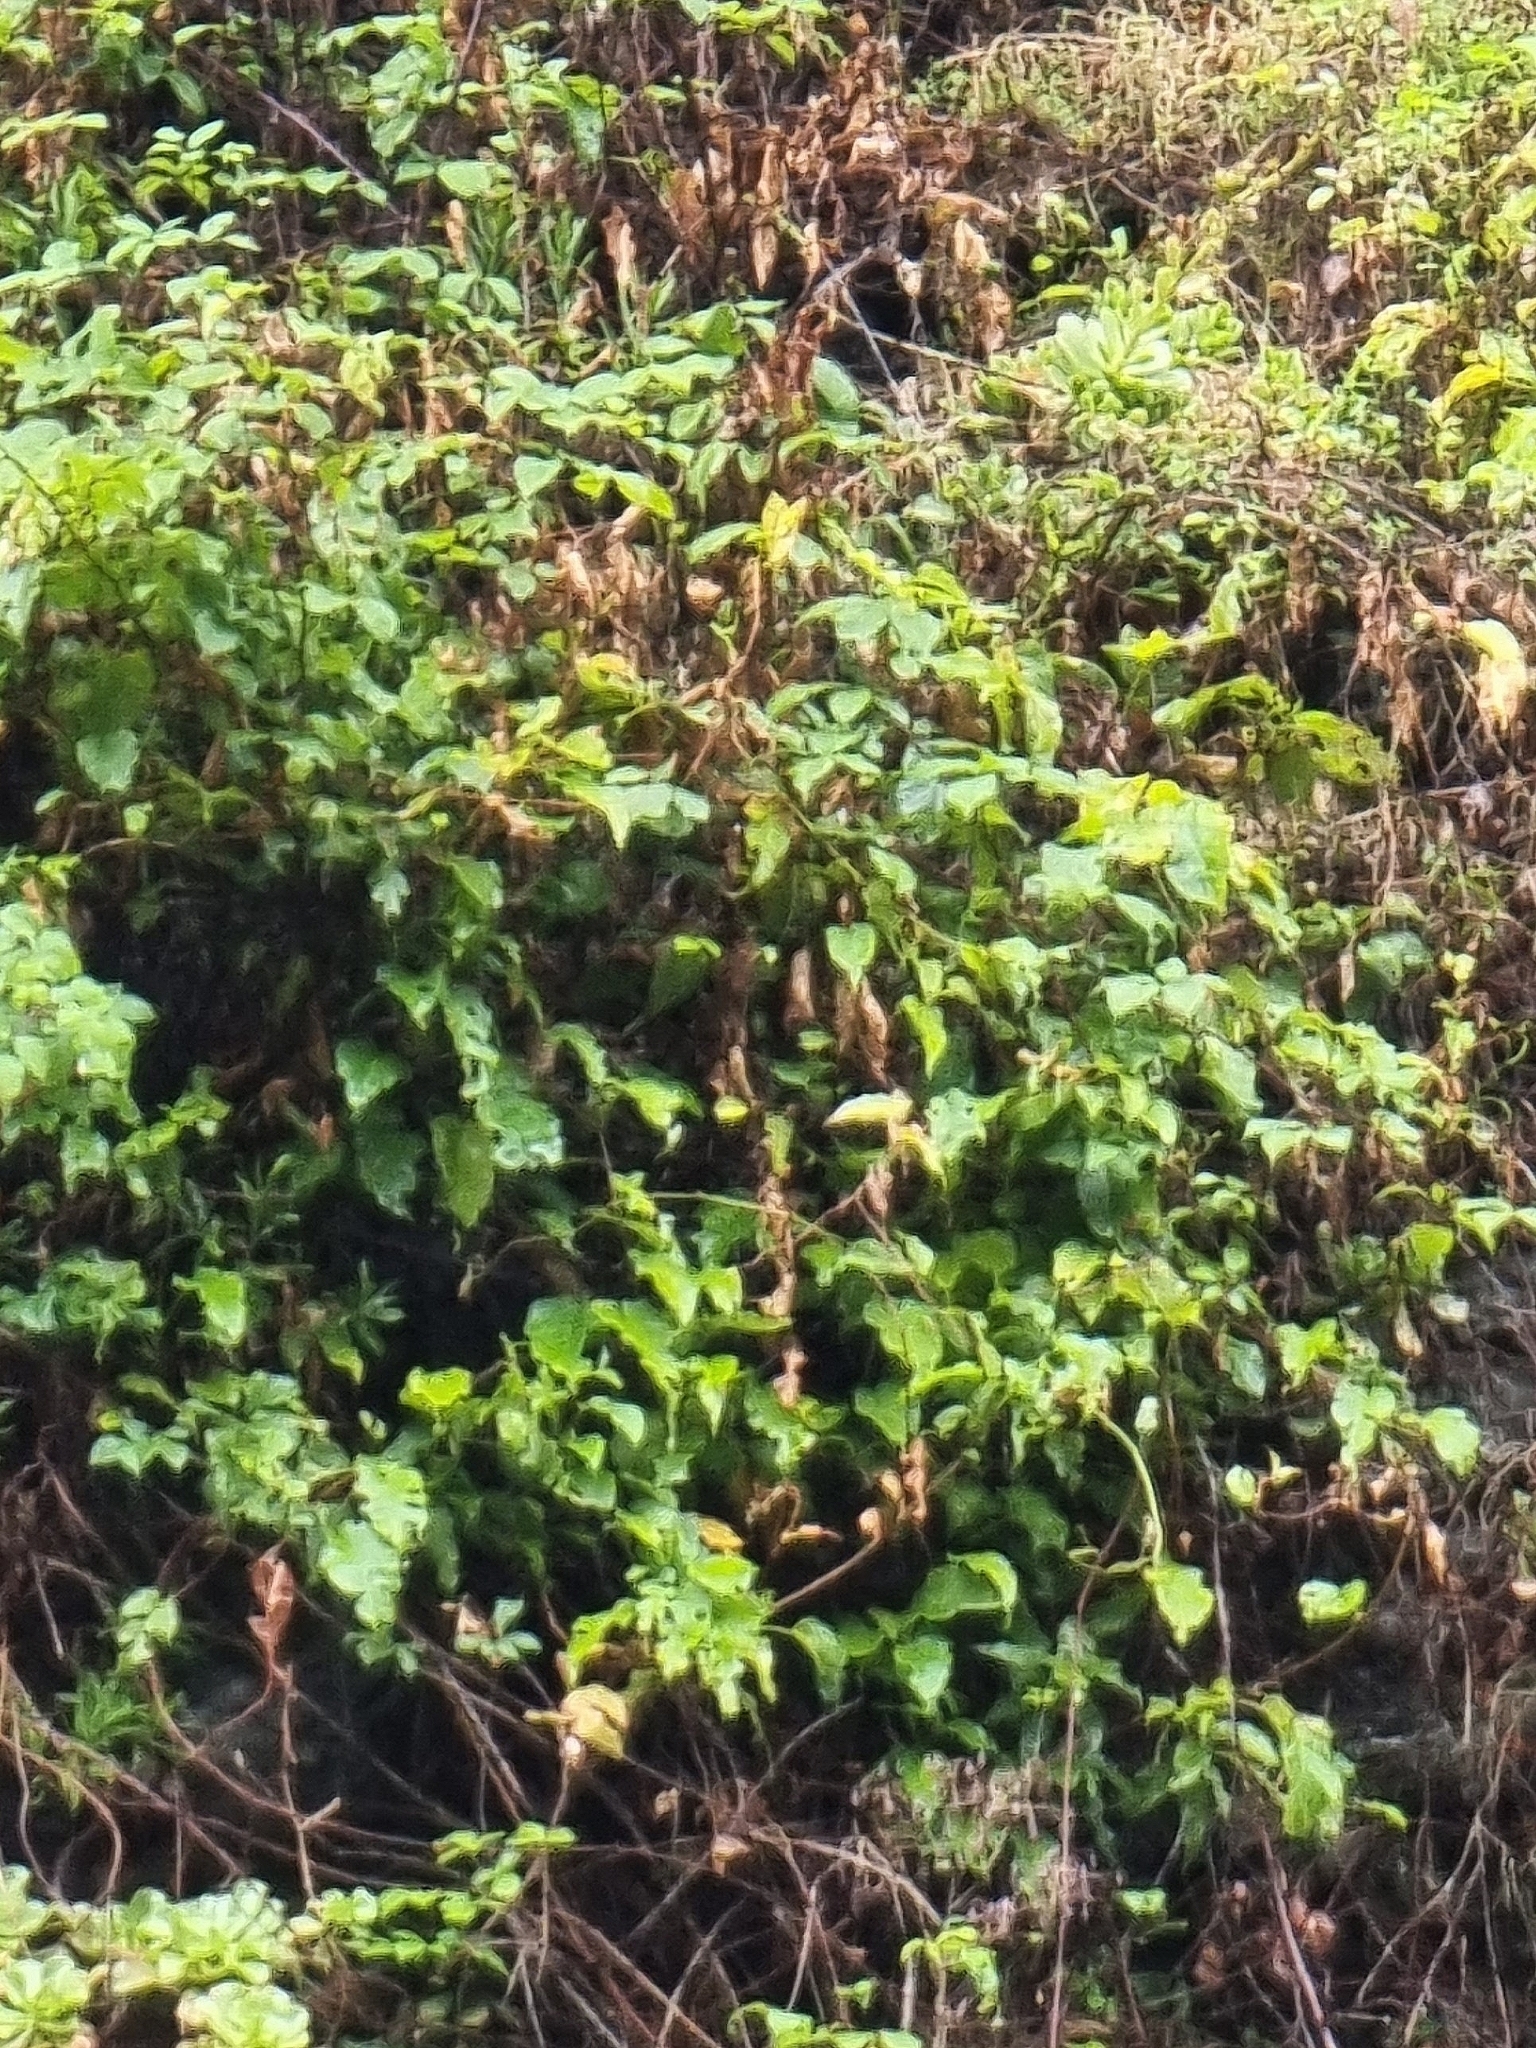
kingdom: Plantae
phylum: Tracheophyta
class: Magnoliopsida
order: Solanales
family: Convolvulaceae
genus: Convolvulus
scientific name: Convolvulus massonii
